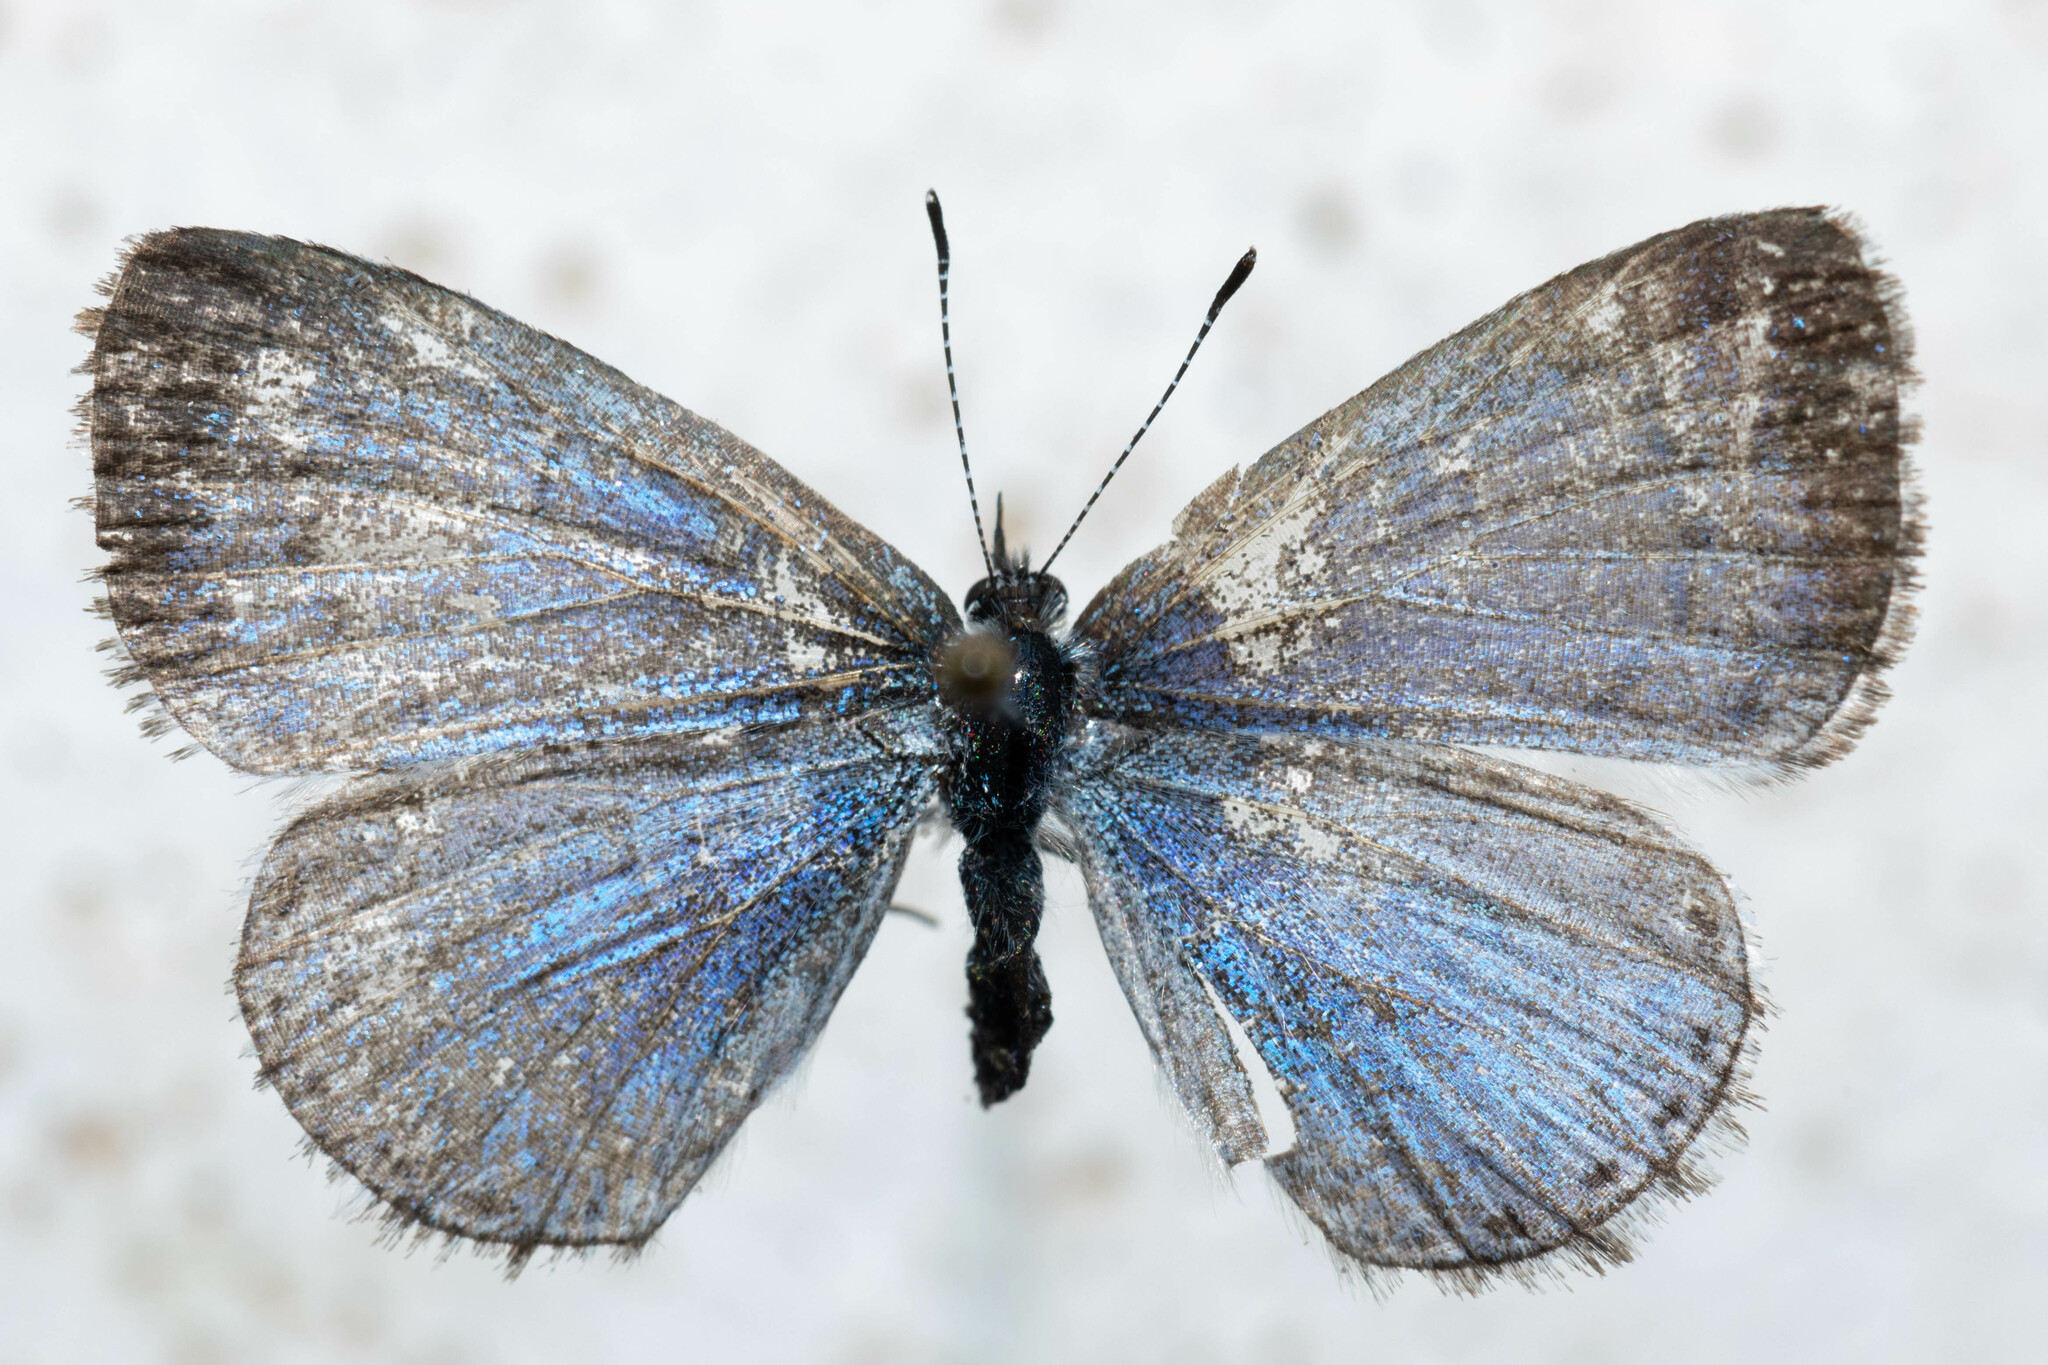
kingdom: Animalia
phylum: Arthropoda
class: Insecta
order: Lepidoptera
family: Lycaenidae
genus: Celastrina
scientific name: Celastrina lucia
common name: Lucia azure
